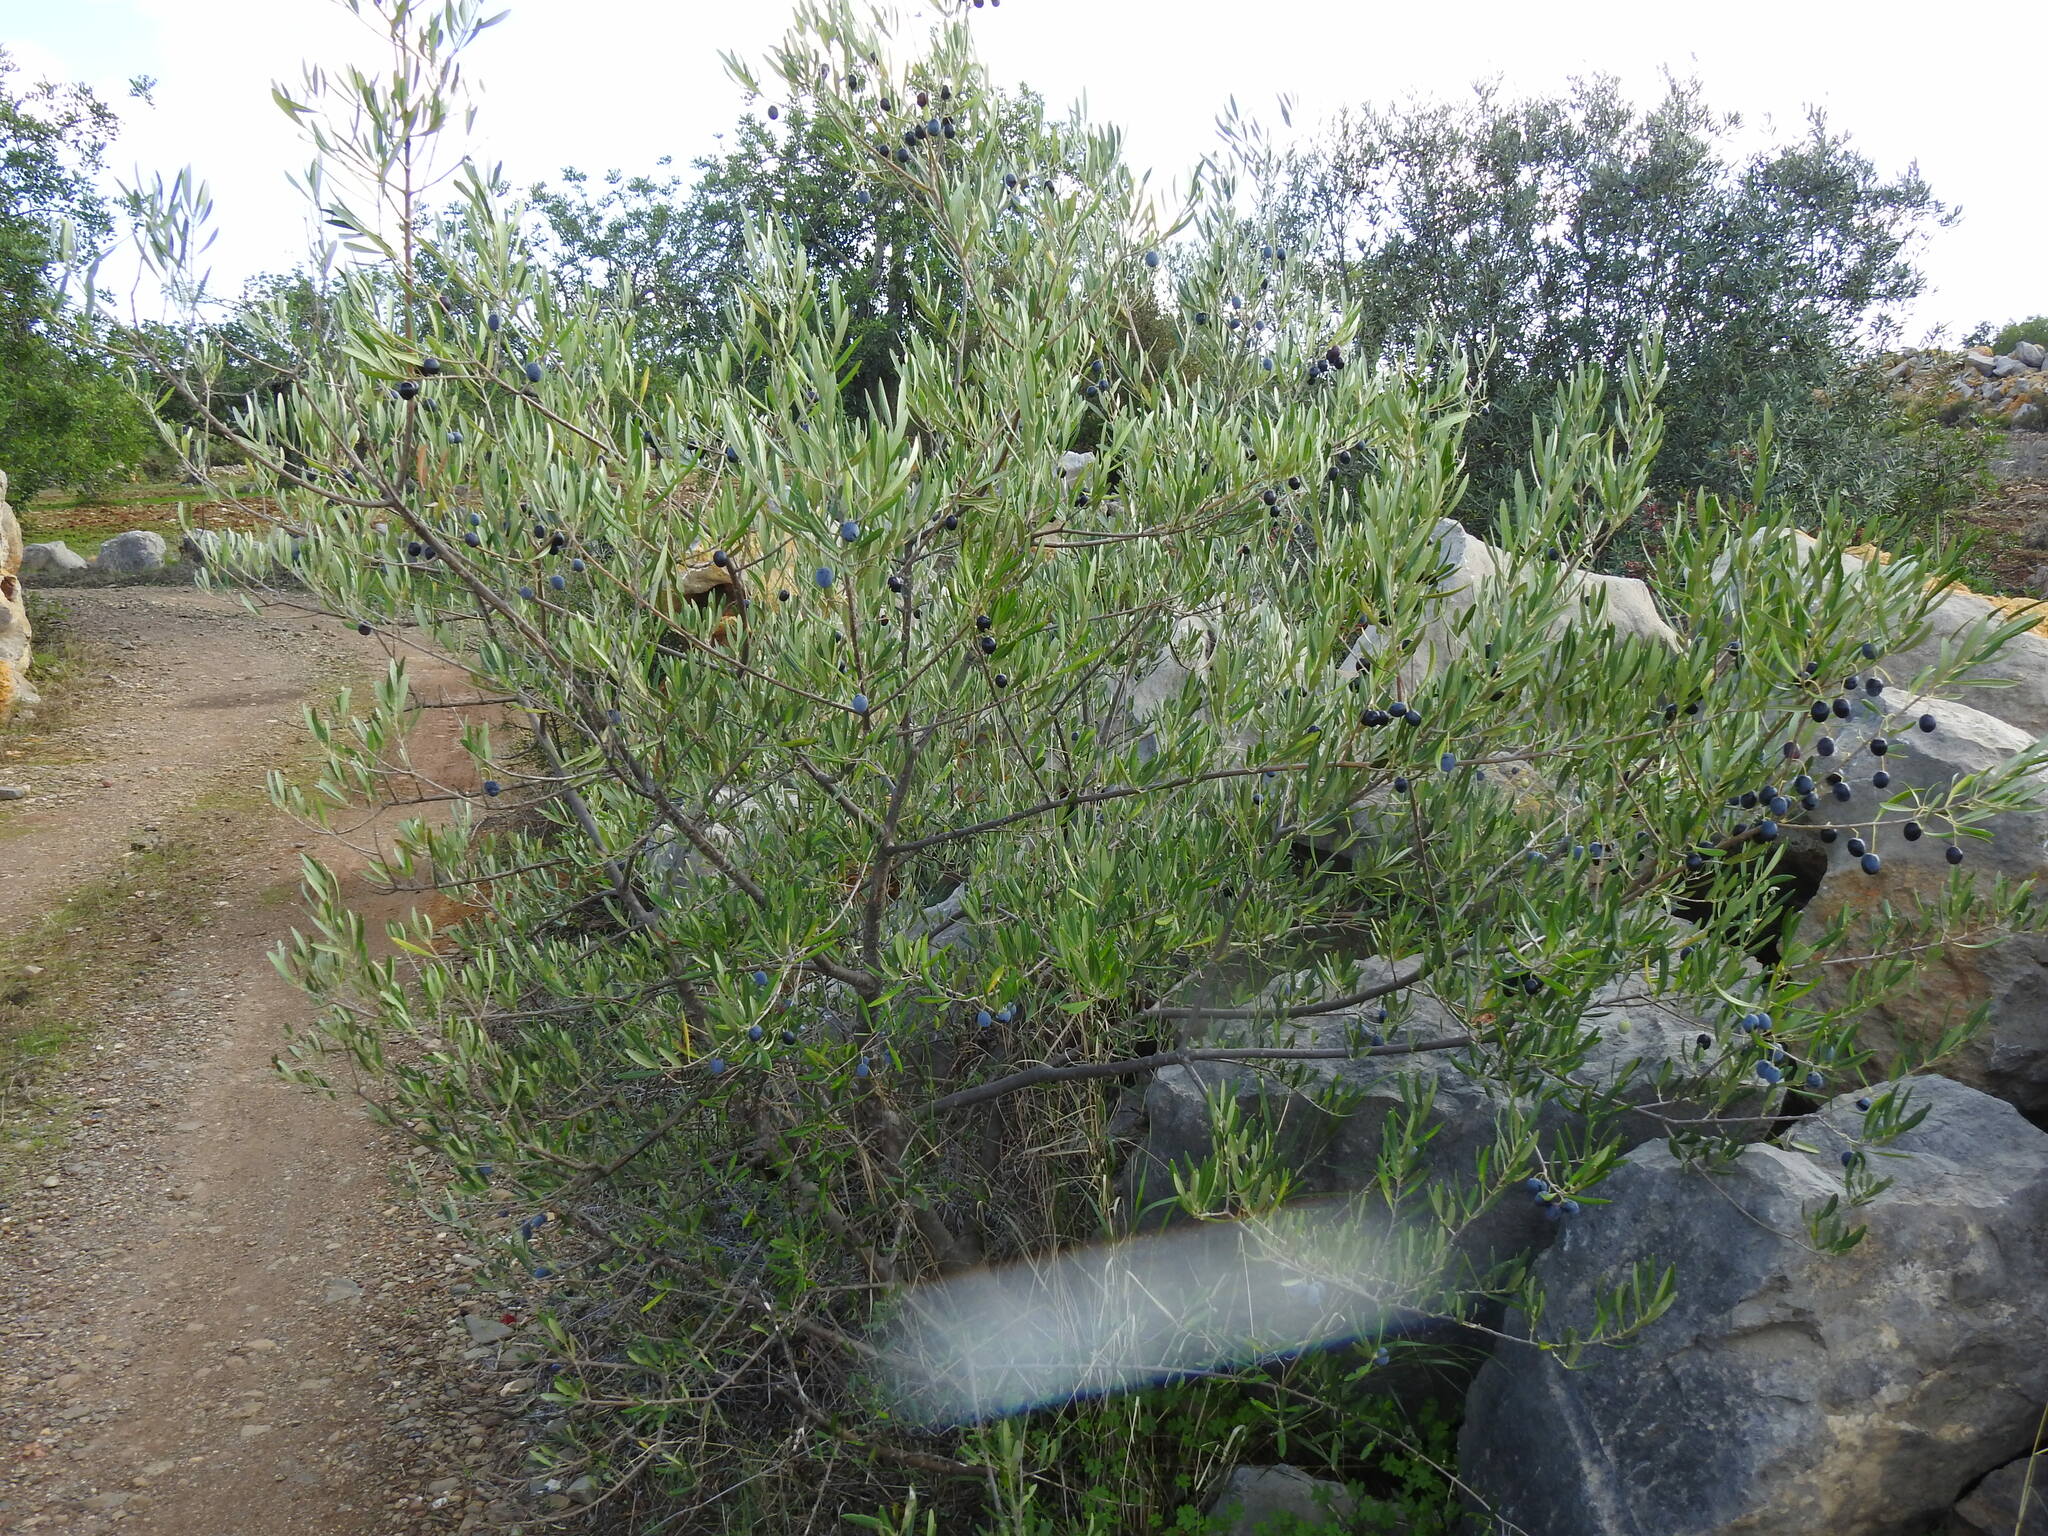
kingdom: Plantae
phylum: Tracheophyta
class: Magnoliopsida
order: Lamiales
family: Oleaceae
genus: Olea
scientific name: Olea europaea
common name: Olive
